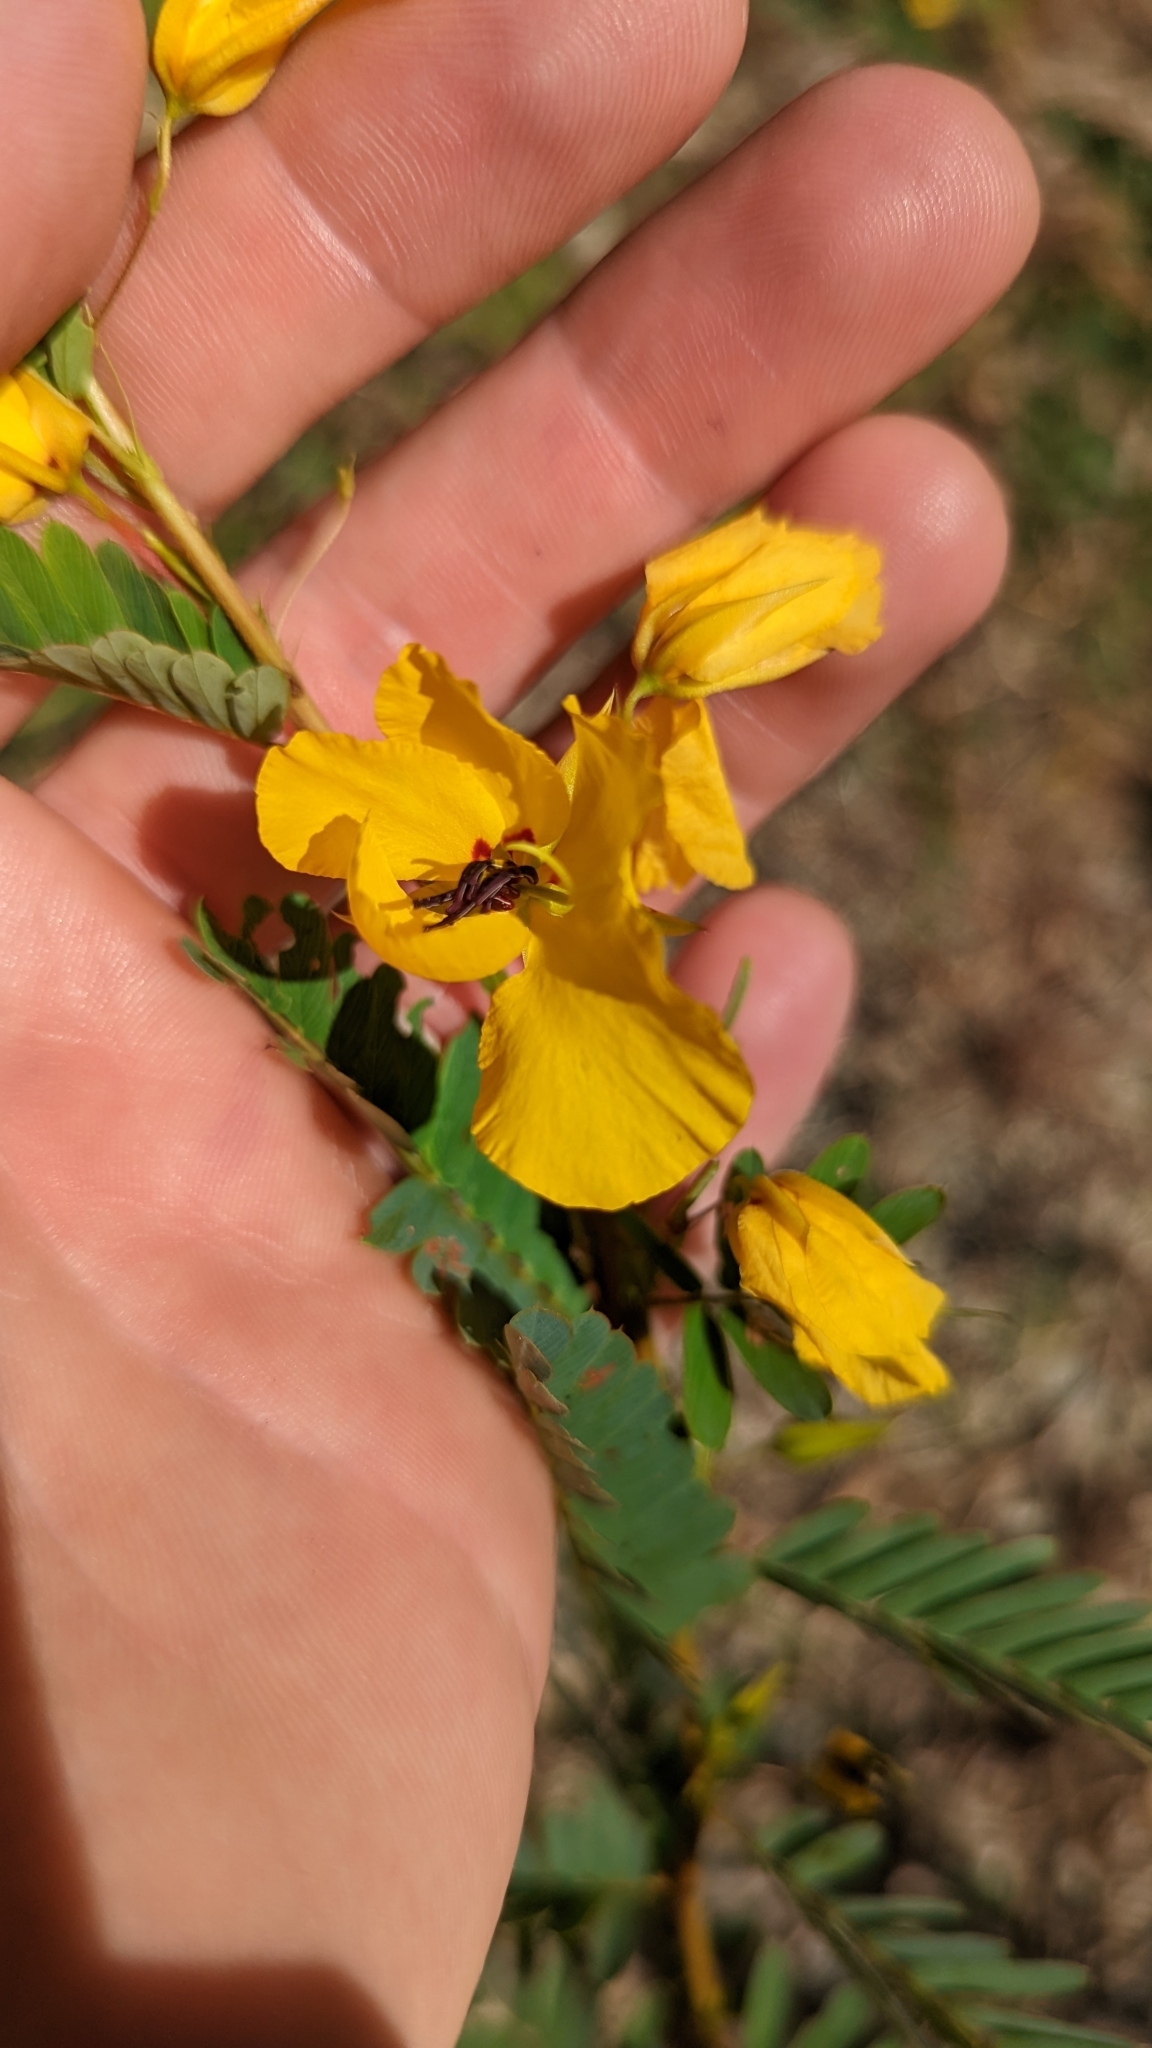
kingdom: Plantae
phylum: Tracheophyta
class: Magnoliopsida
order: Fabales
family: Fabaceae
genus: Chamaecrista
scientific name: Chamaecrista fasciculata
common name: Golden cassia
